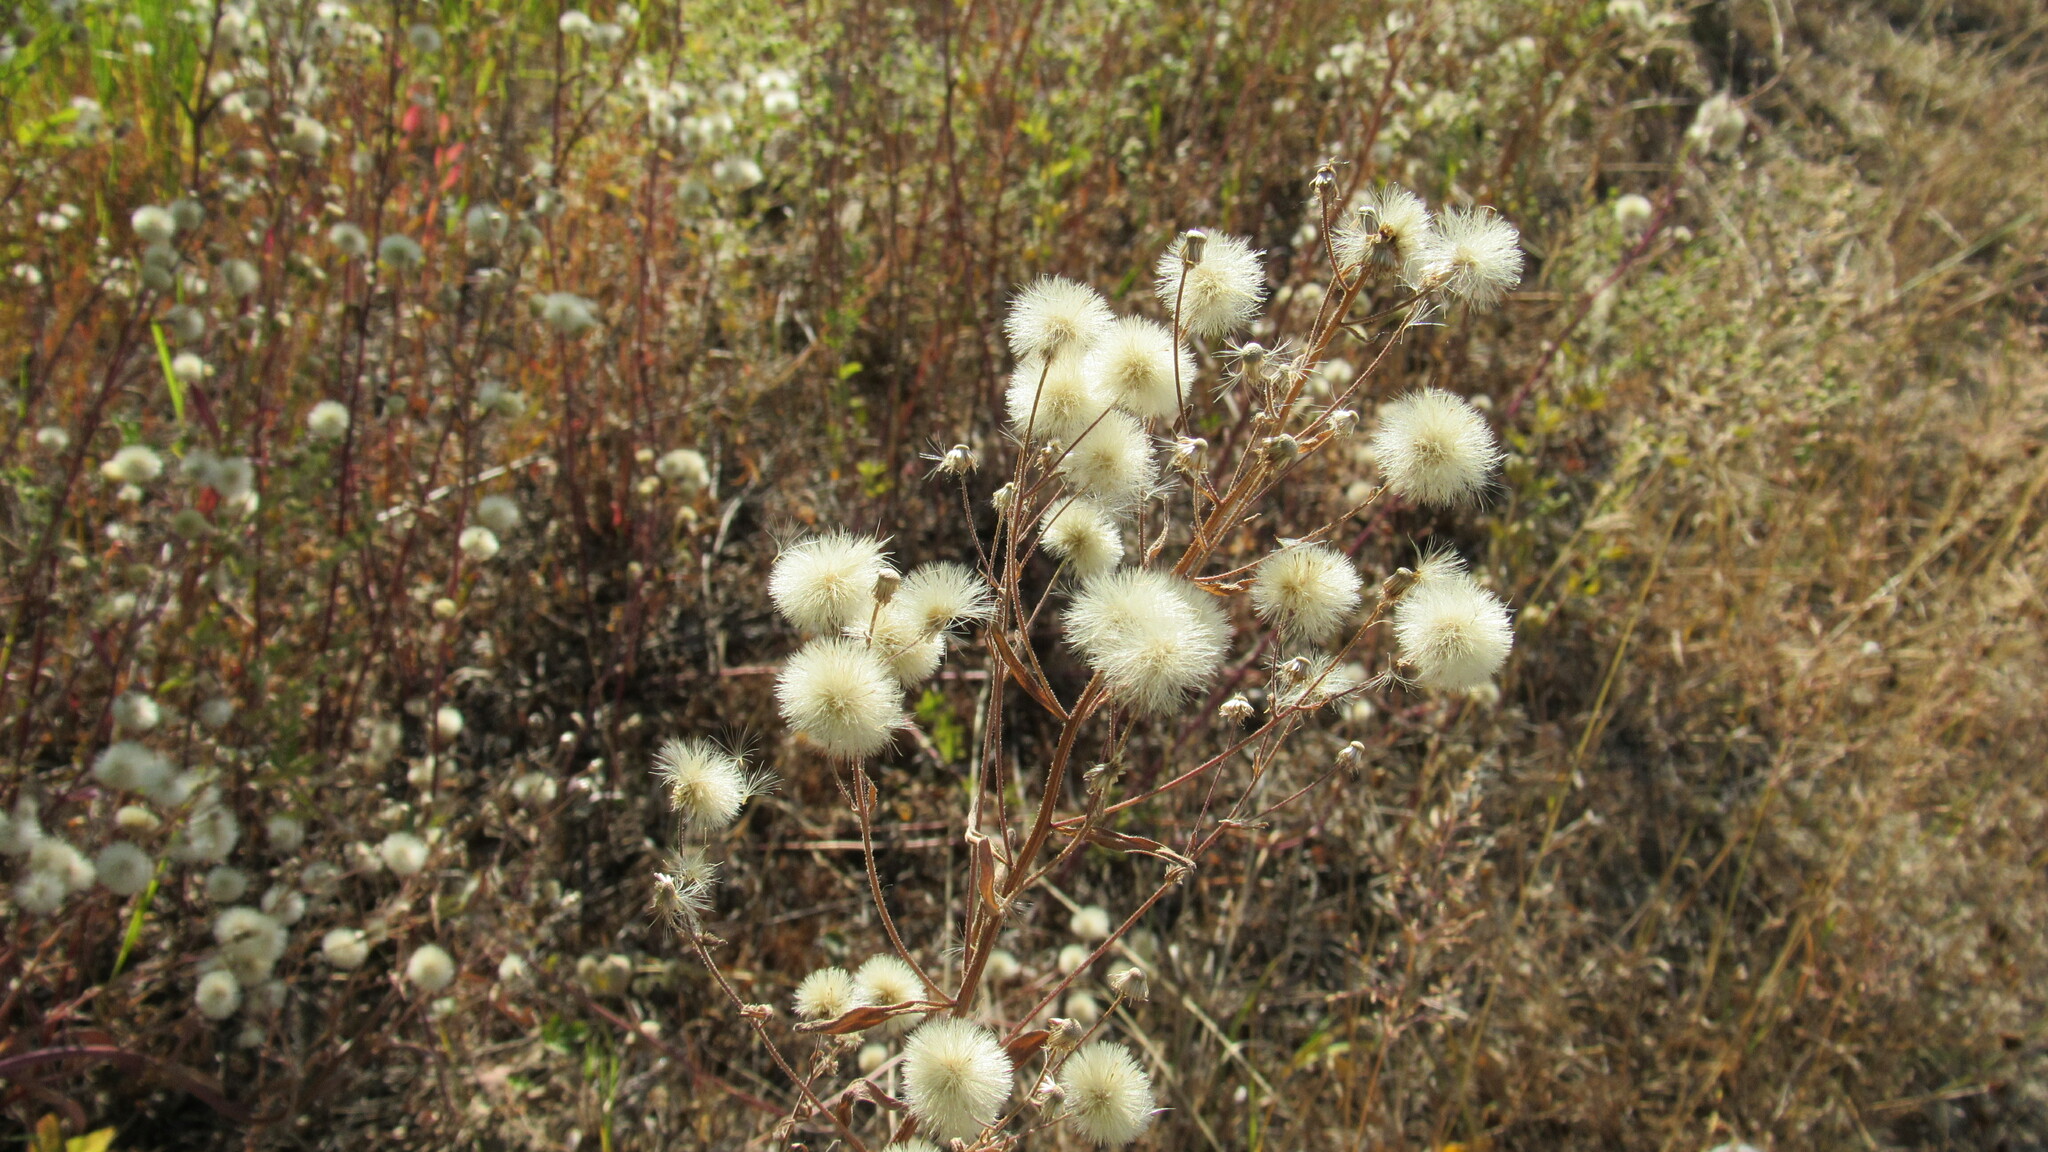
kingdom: Plantae
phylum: Tracheophyta
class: Magnoliopsida
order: Asterales
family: Asteraceae
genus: Erigeron
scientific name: Erigeron acris
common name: Blue fleabane
